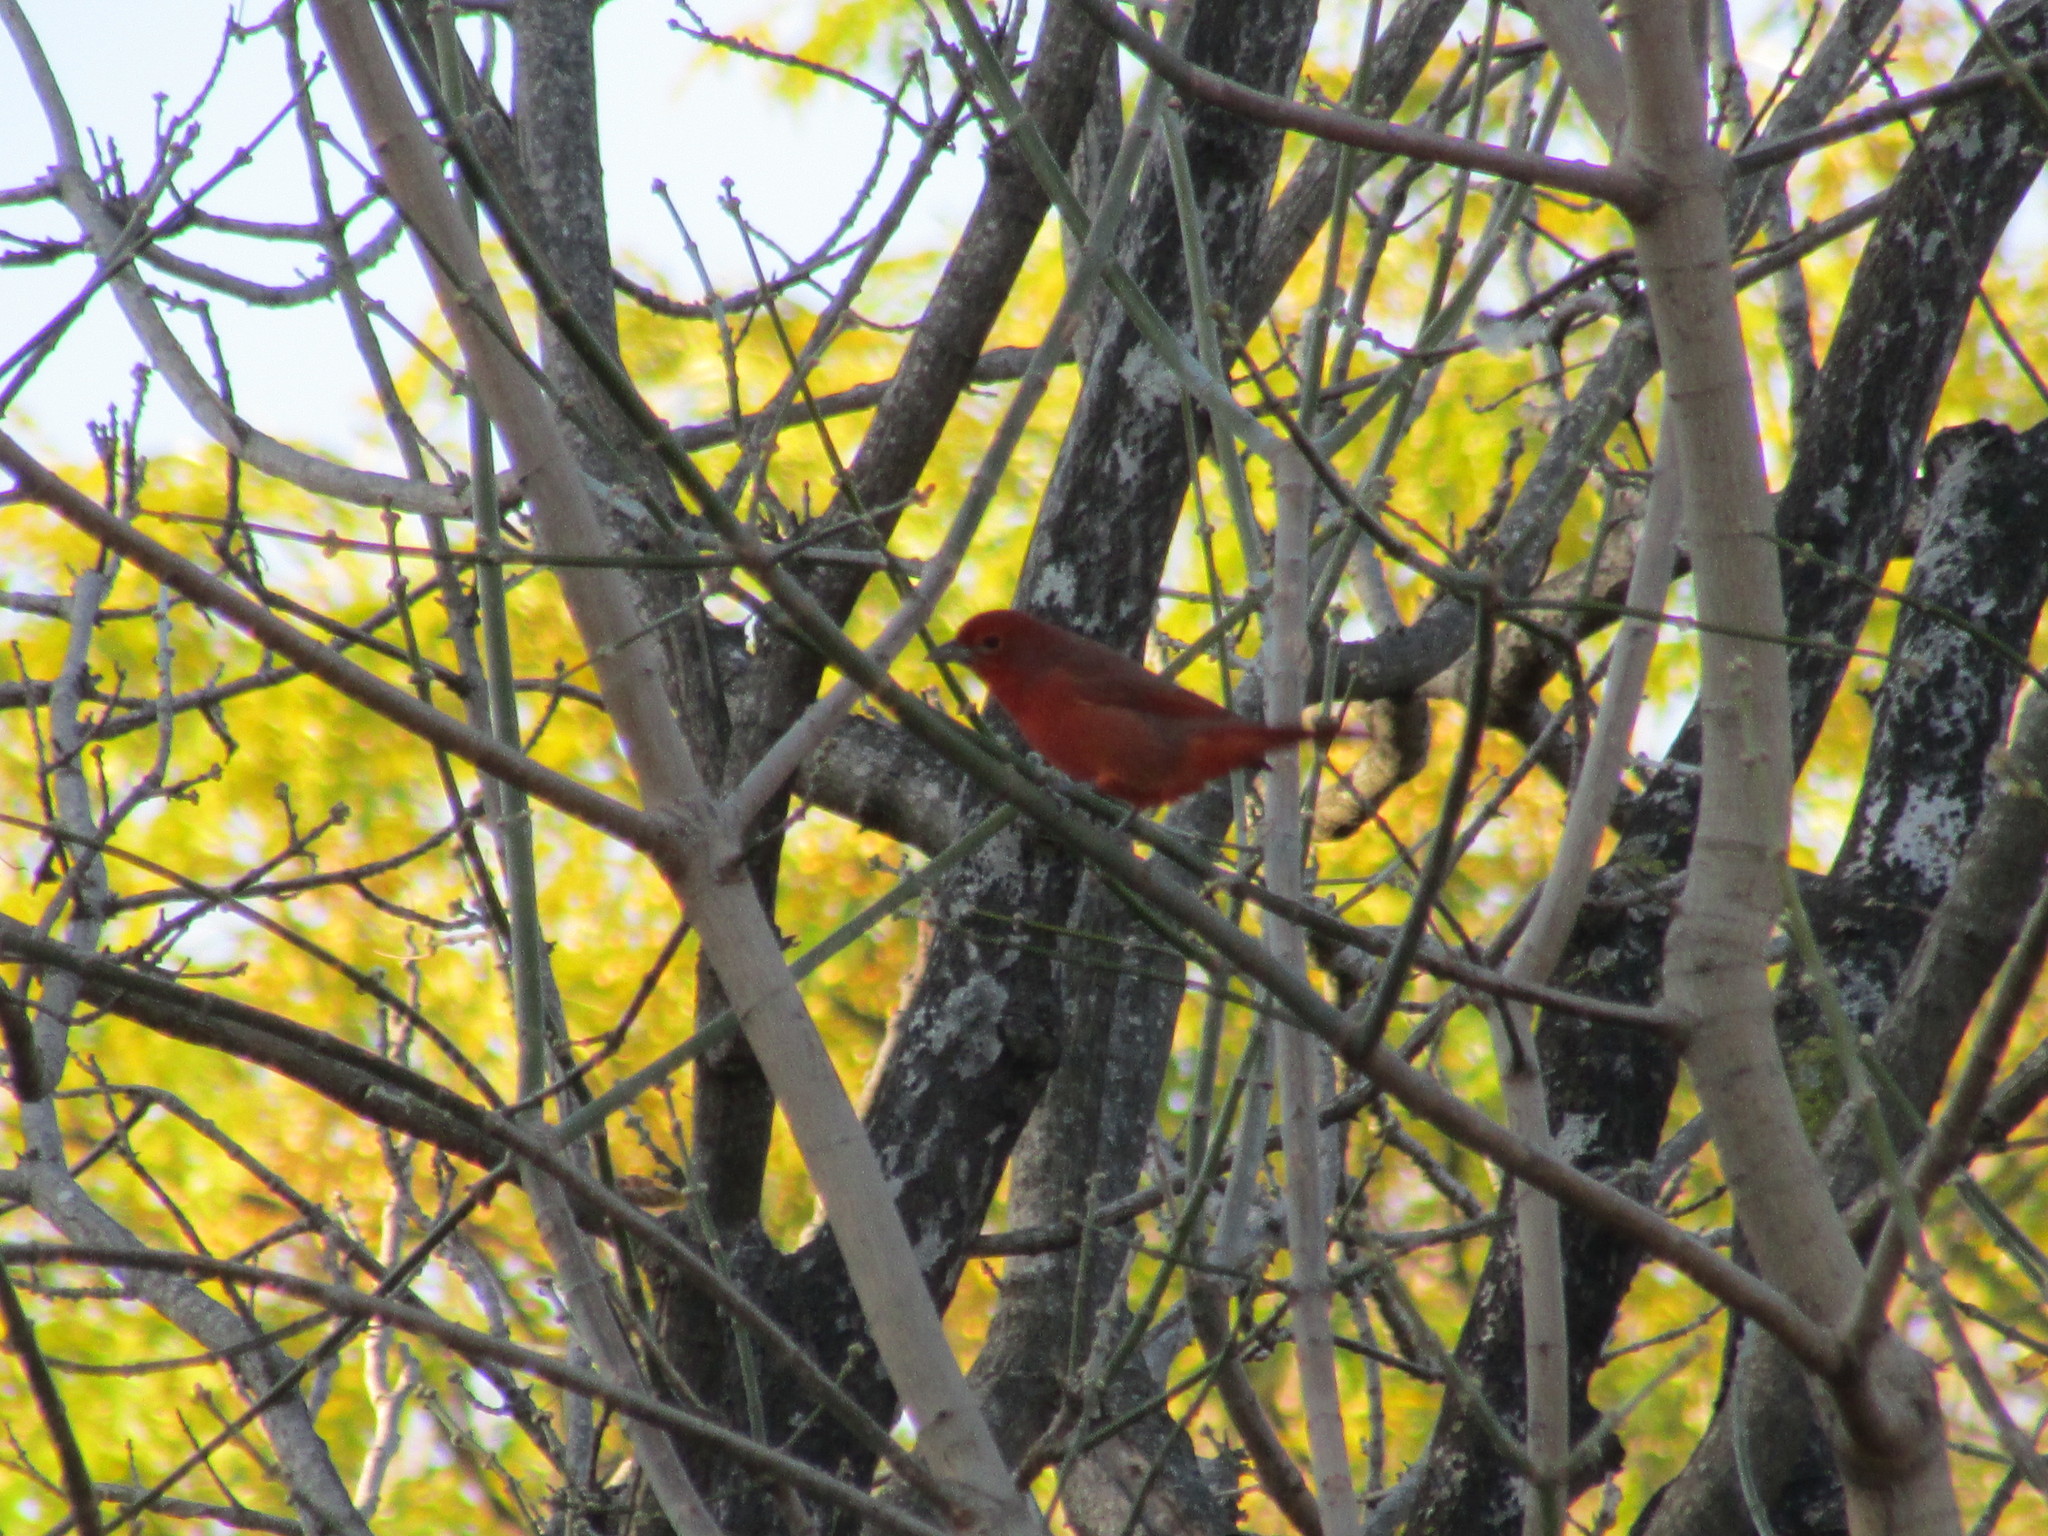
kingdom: Animalia
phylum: Chordata
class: Aves
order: Passeriformes
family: Cardinalidae
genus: Piranga
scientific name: Piranga flava
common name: Red tanager
